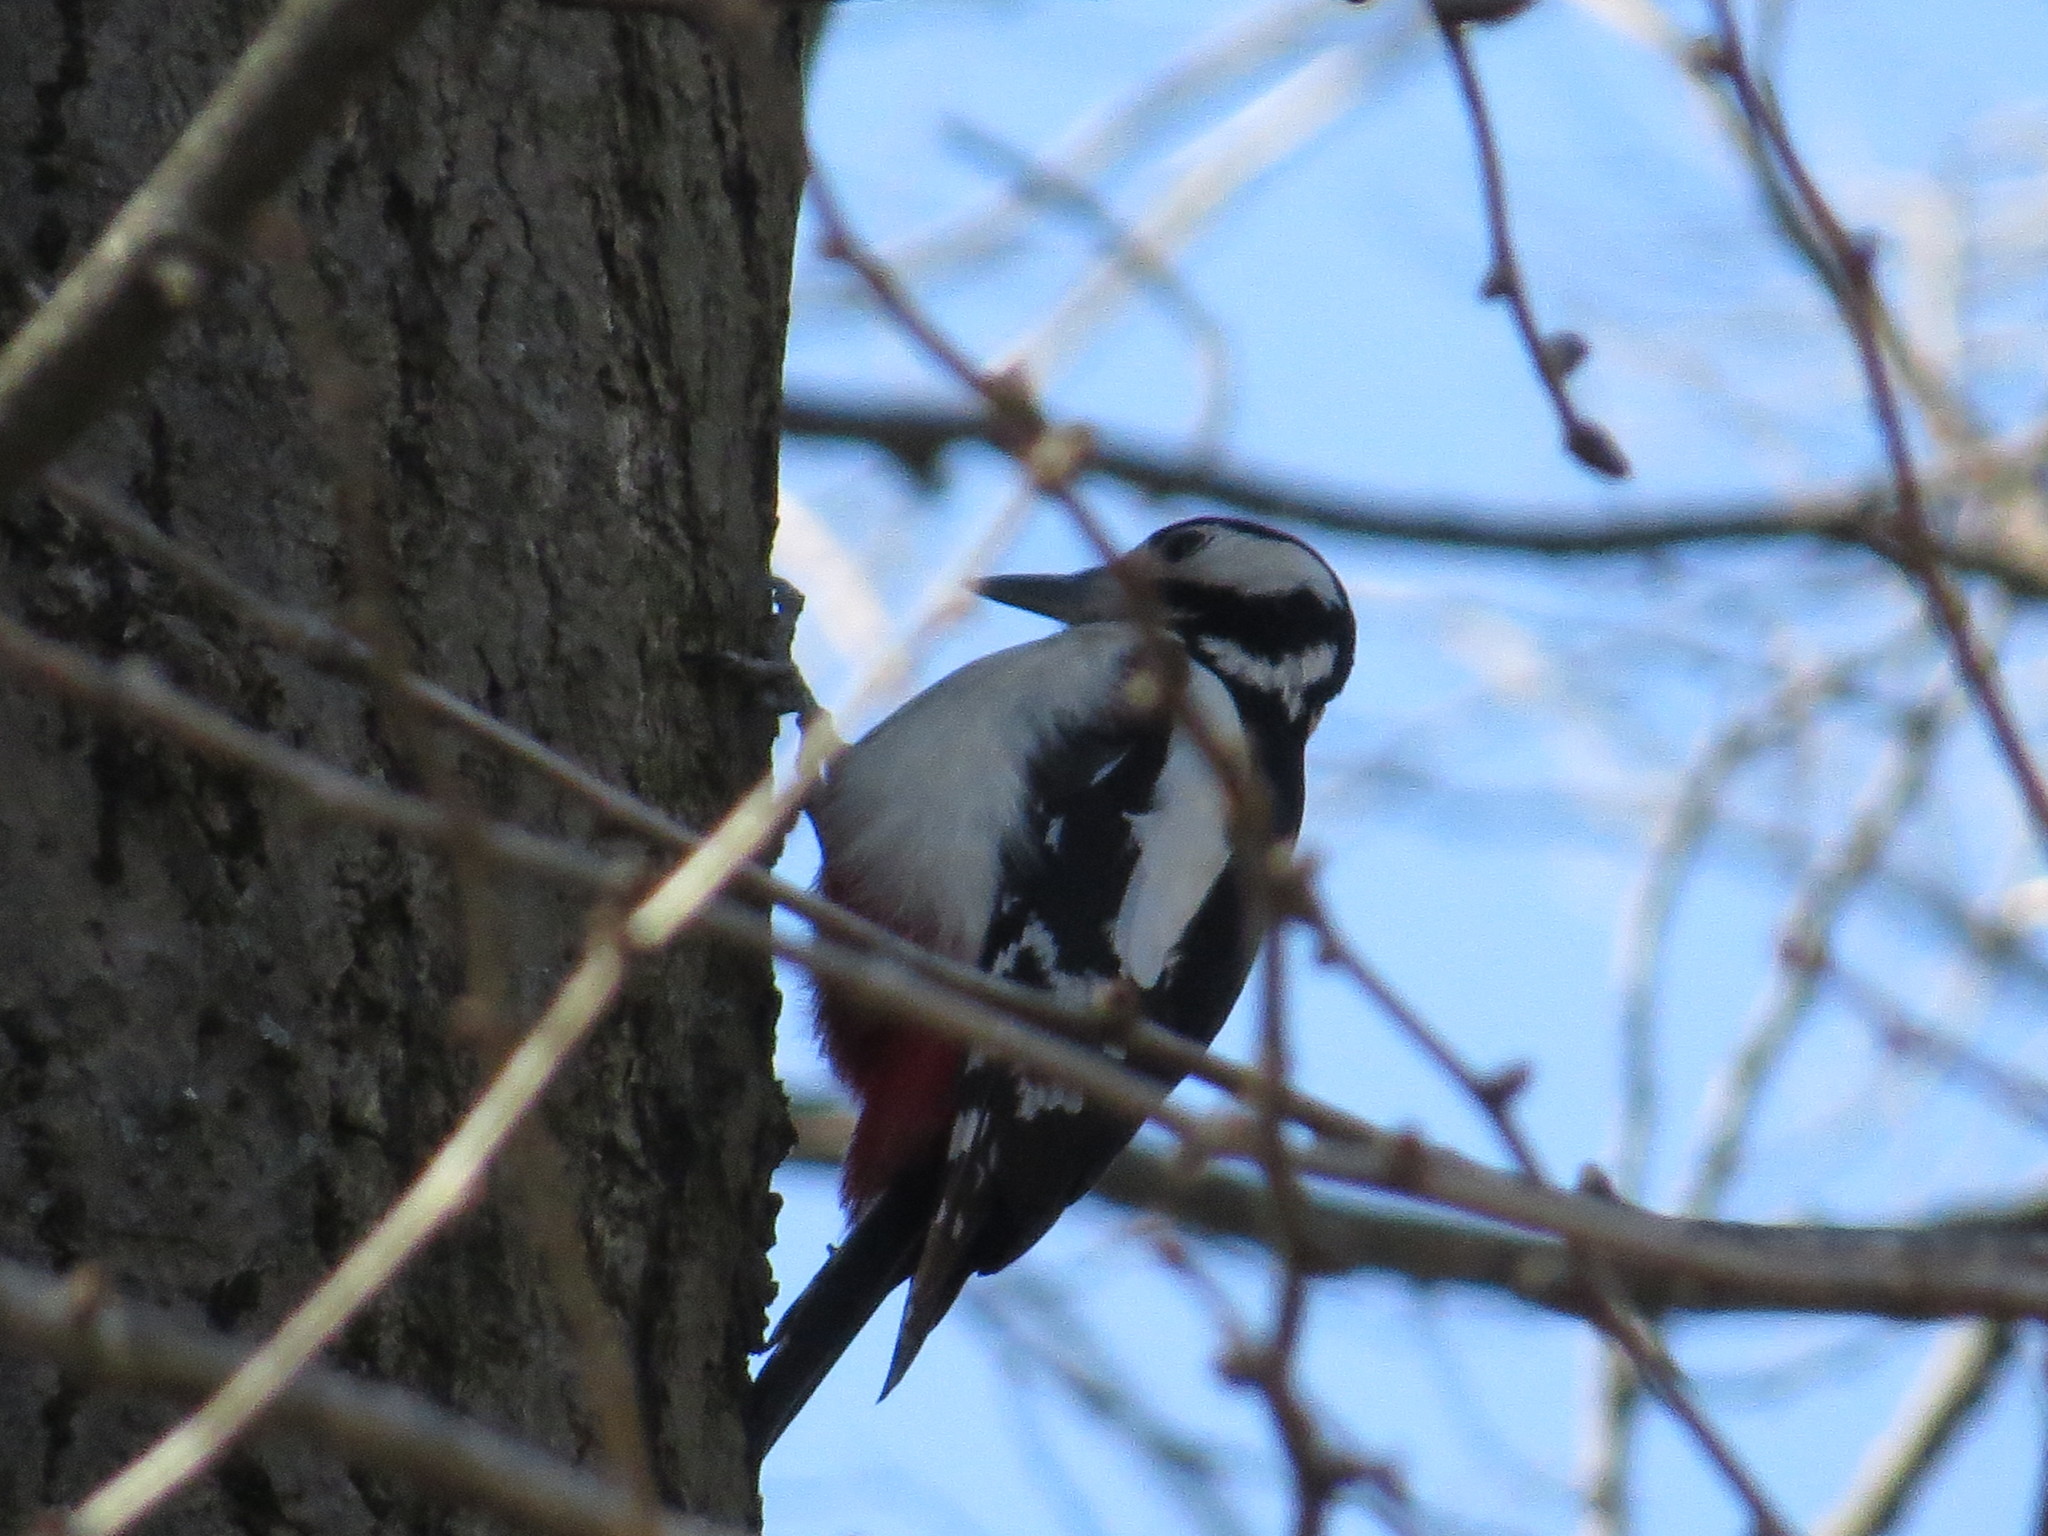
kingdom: Animalia
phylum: Chordata
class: Aves
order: Piciformes
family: Picidae
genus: Dendrocopos
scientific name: Dendrocopos major
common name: Great spotted woodpecker
